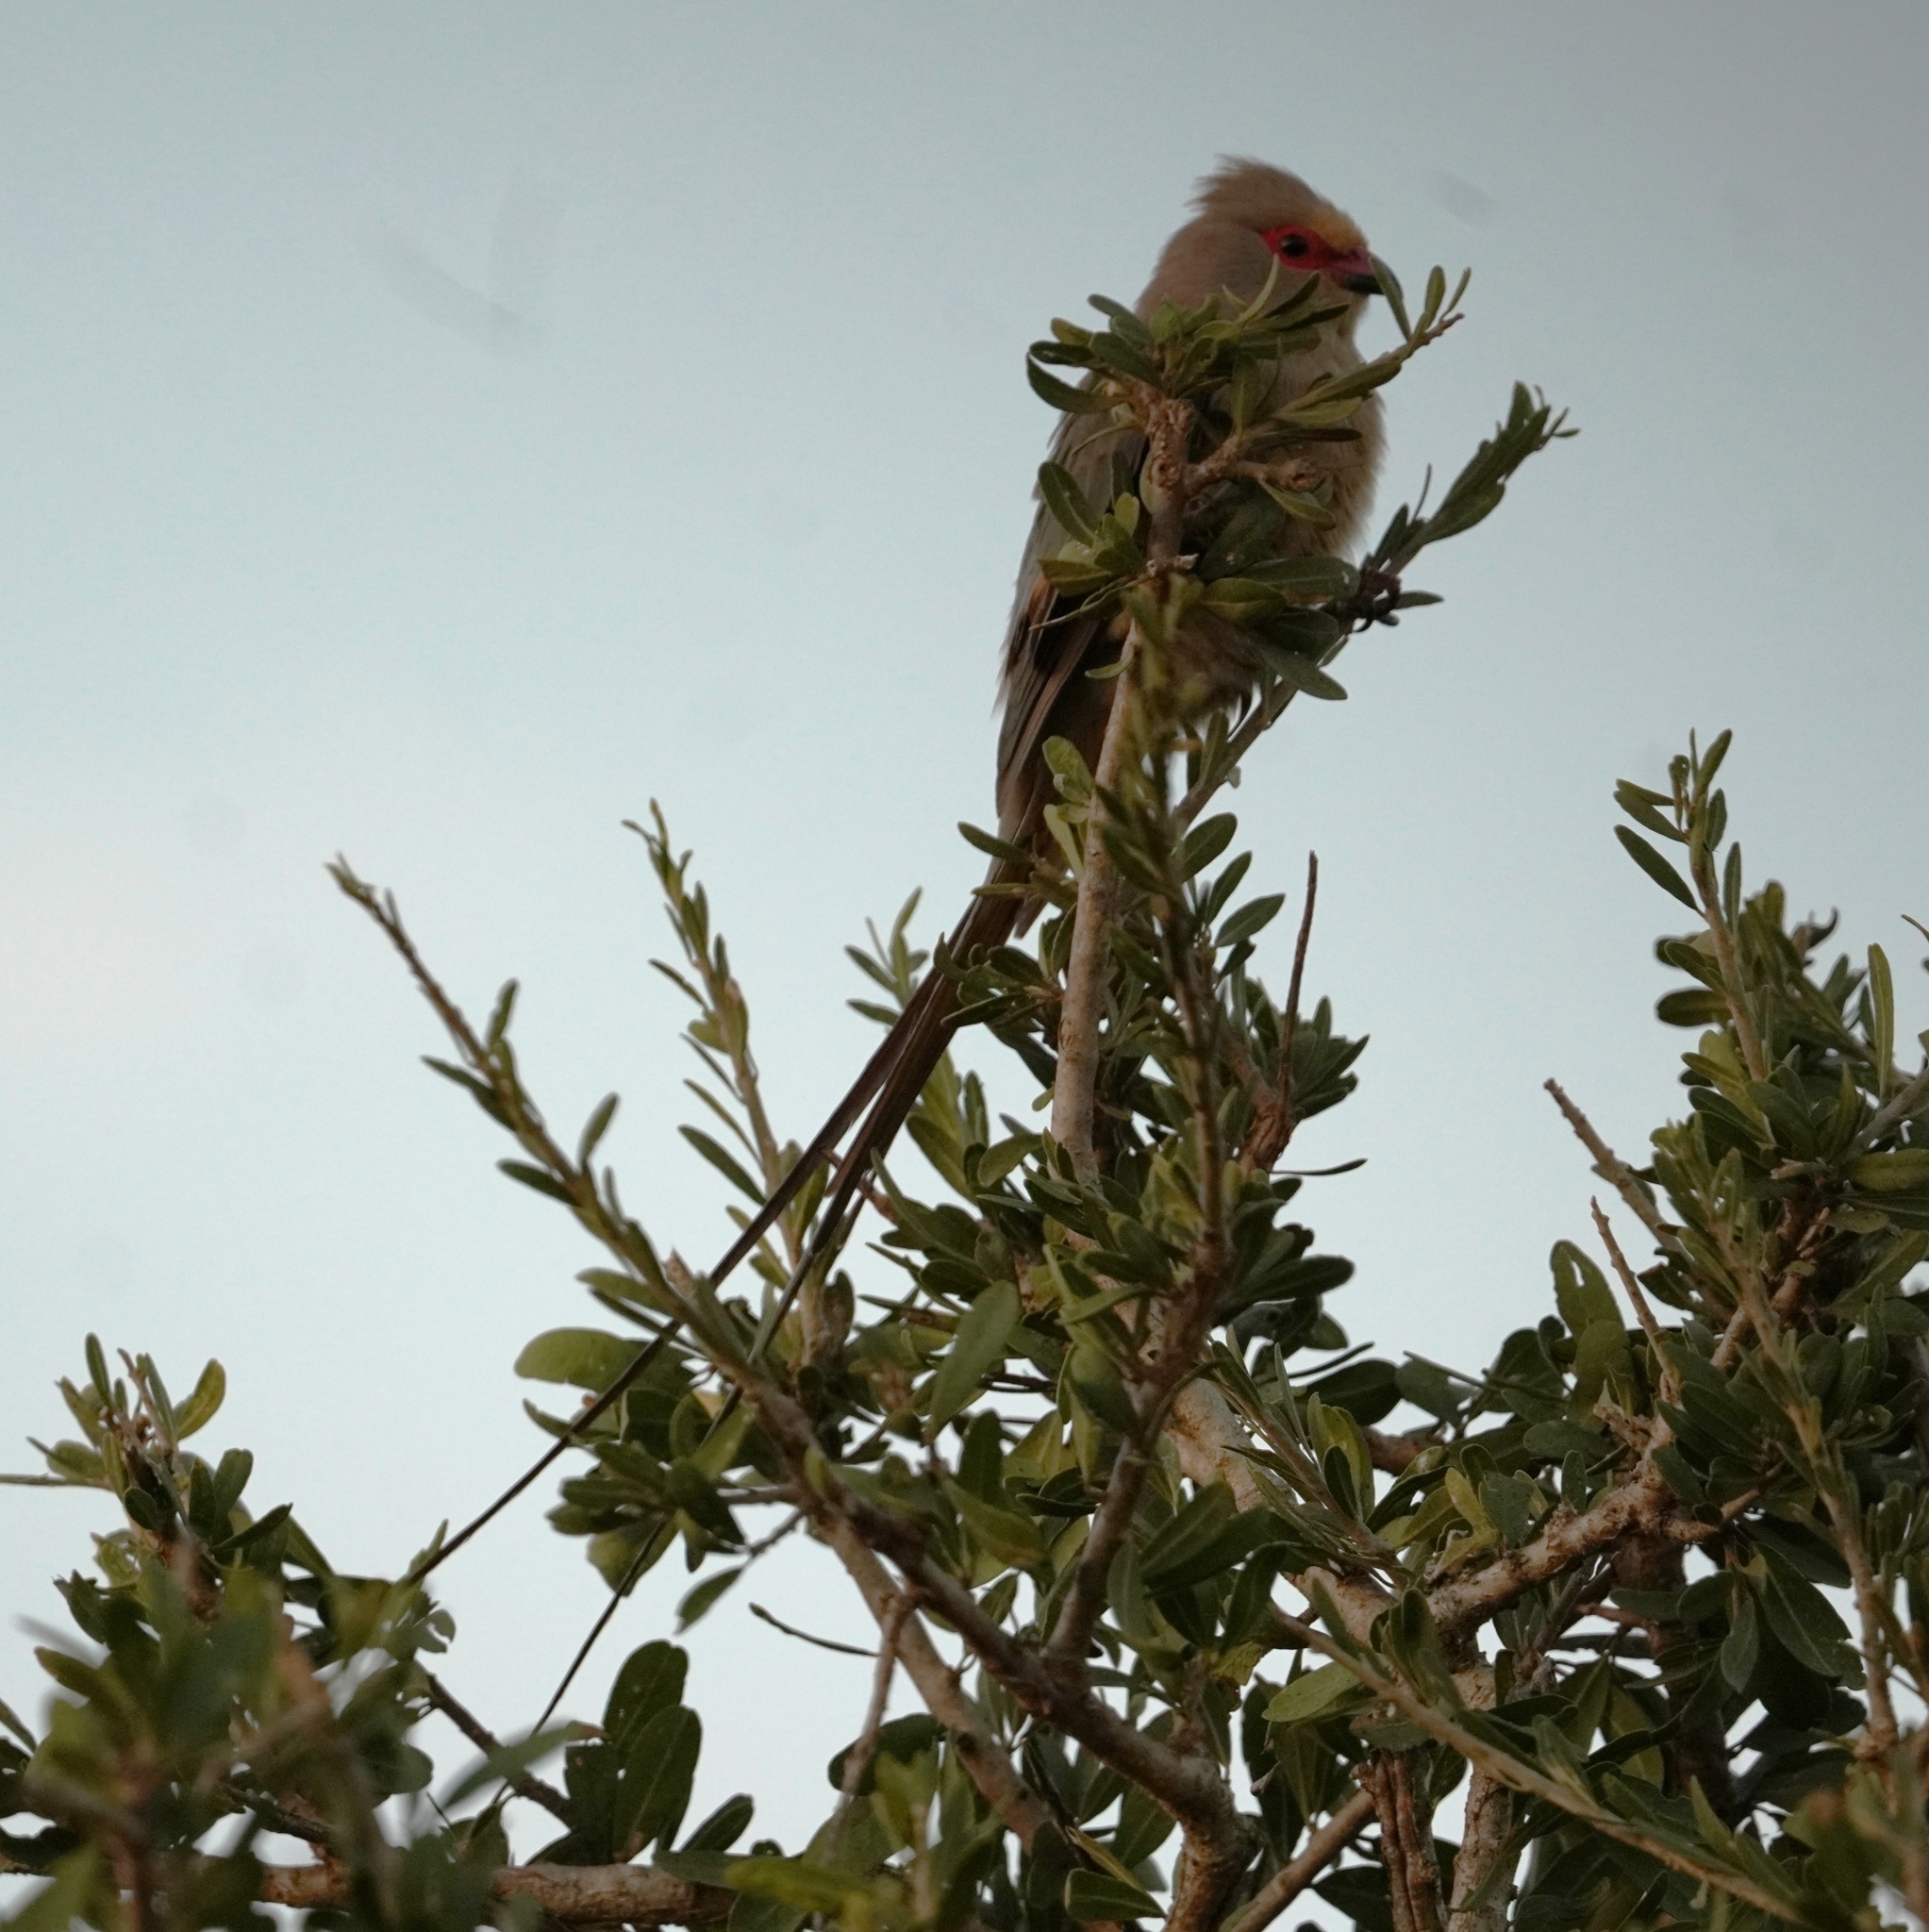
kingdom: Animalia
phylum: Chordata
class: Aves
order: Coliiformes
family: Coliidae
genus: Urocolius
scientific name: Urocolius indicus
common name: Red-faced mousebird
